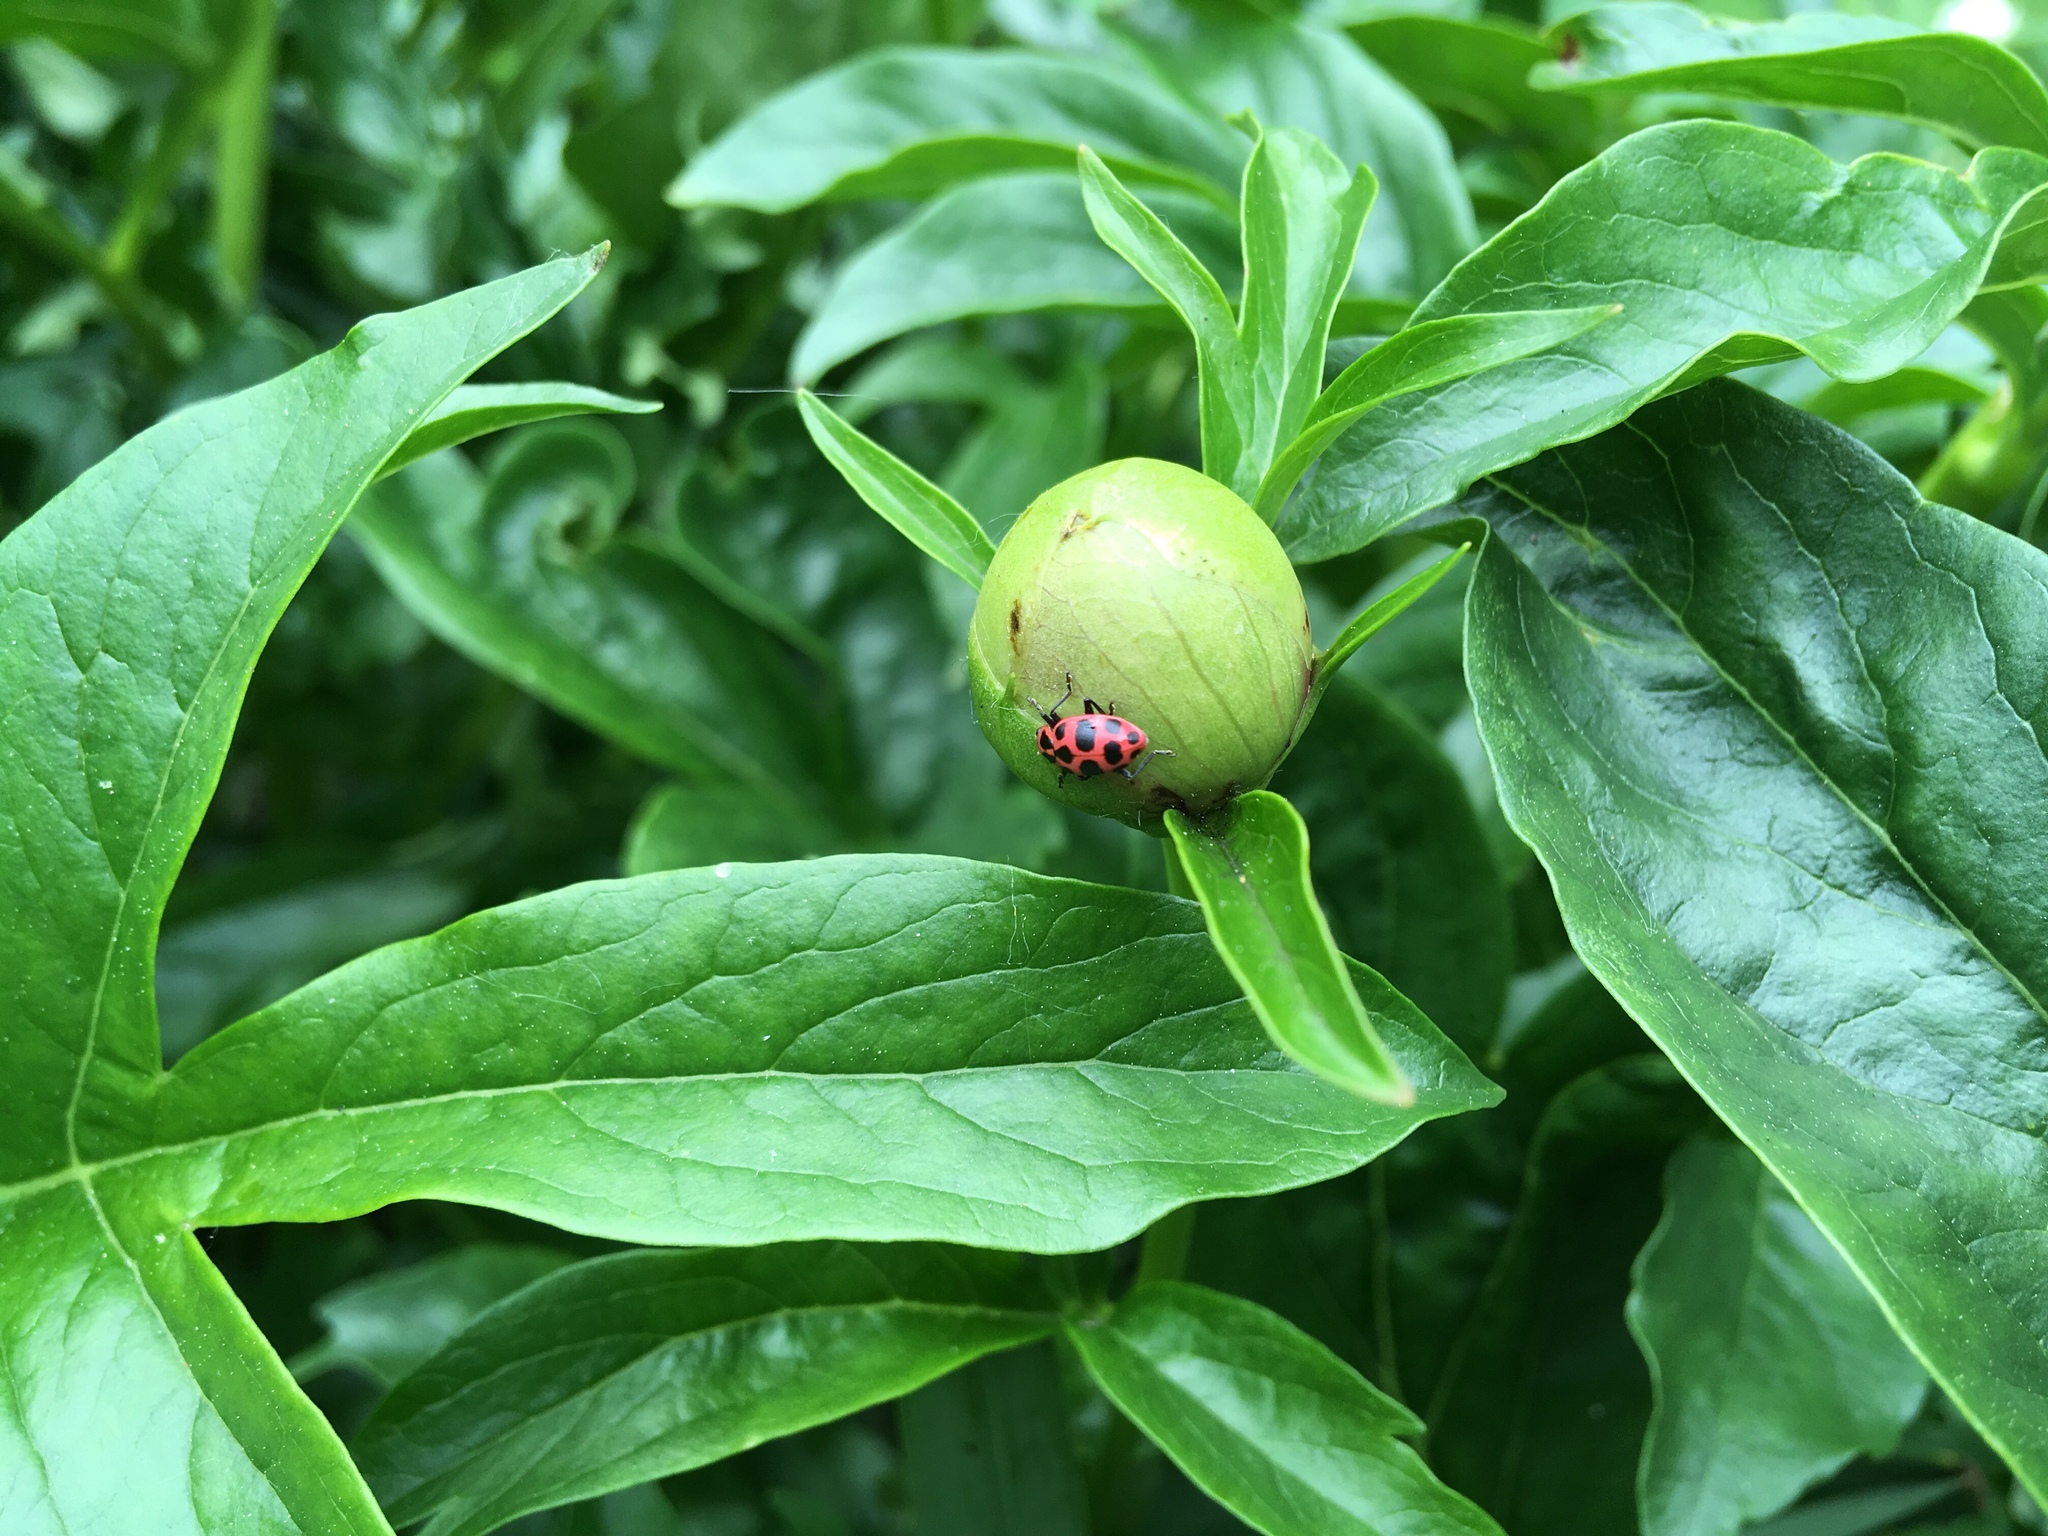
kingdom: Animalia
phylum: Arthropoda
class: Insecta
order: Coleoptera
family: Coccinellidae
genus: Coleomegilla
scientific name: Coleomegilla maculata
